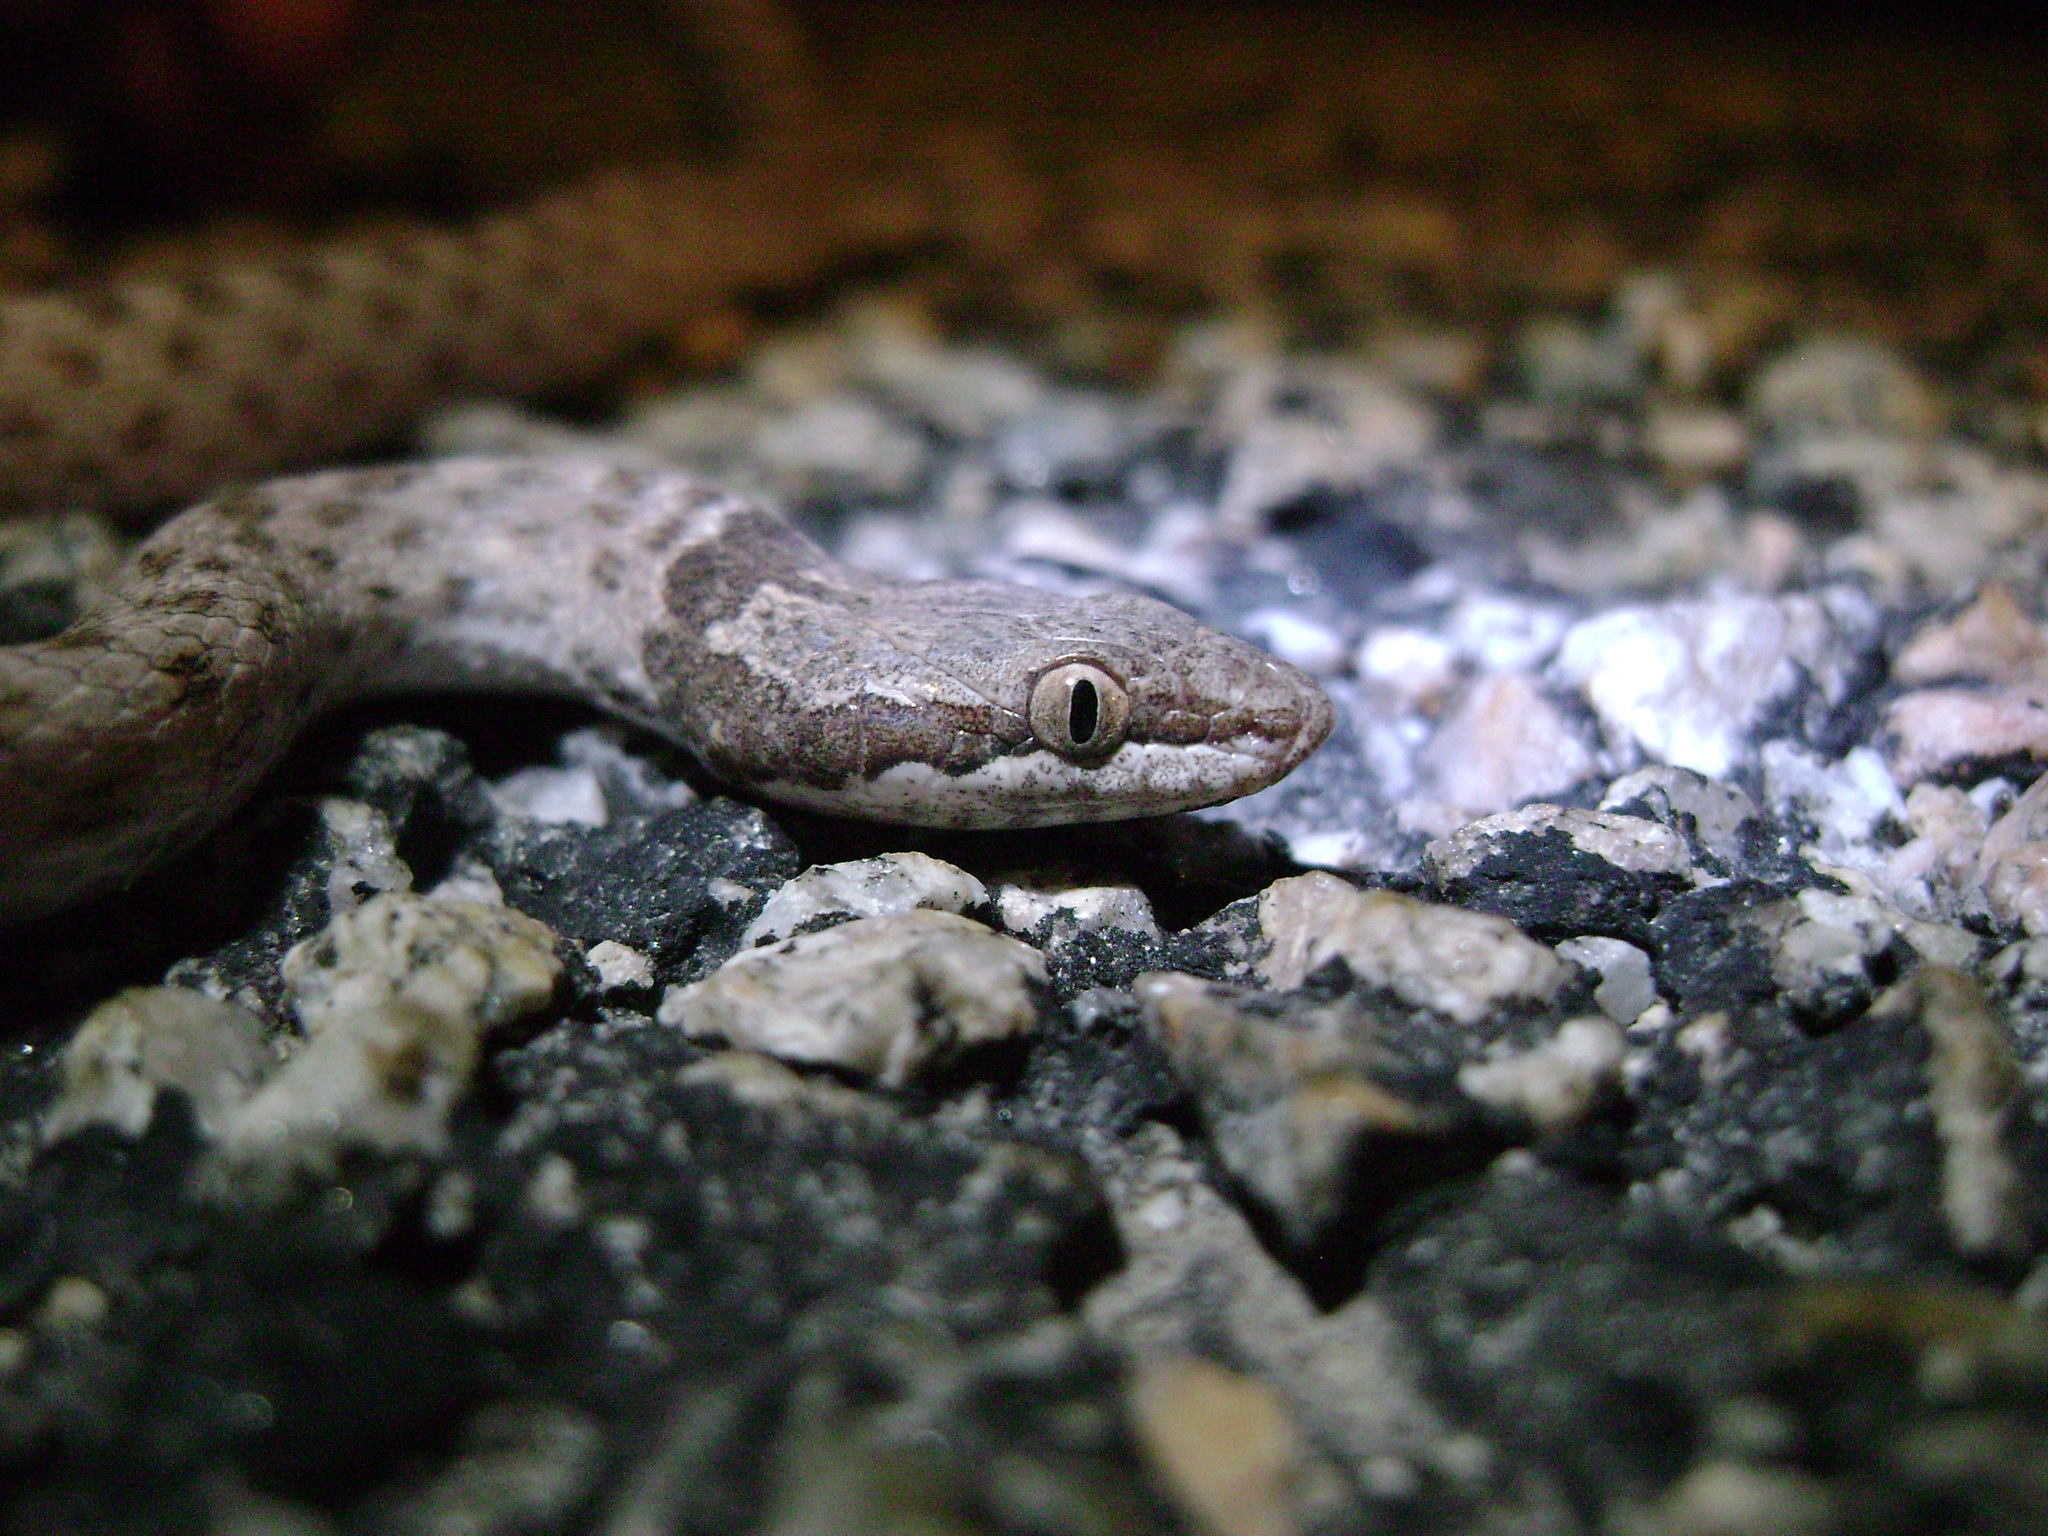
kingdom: Animalia
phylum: Chordata
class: Squamata
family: Colubridae
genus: Hypsiglena
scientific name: Hypsiglena chlorophaea
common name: Desert nightsnake
